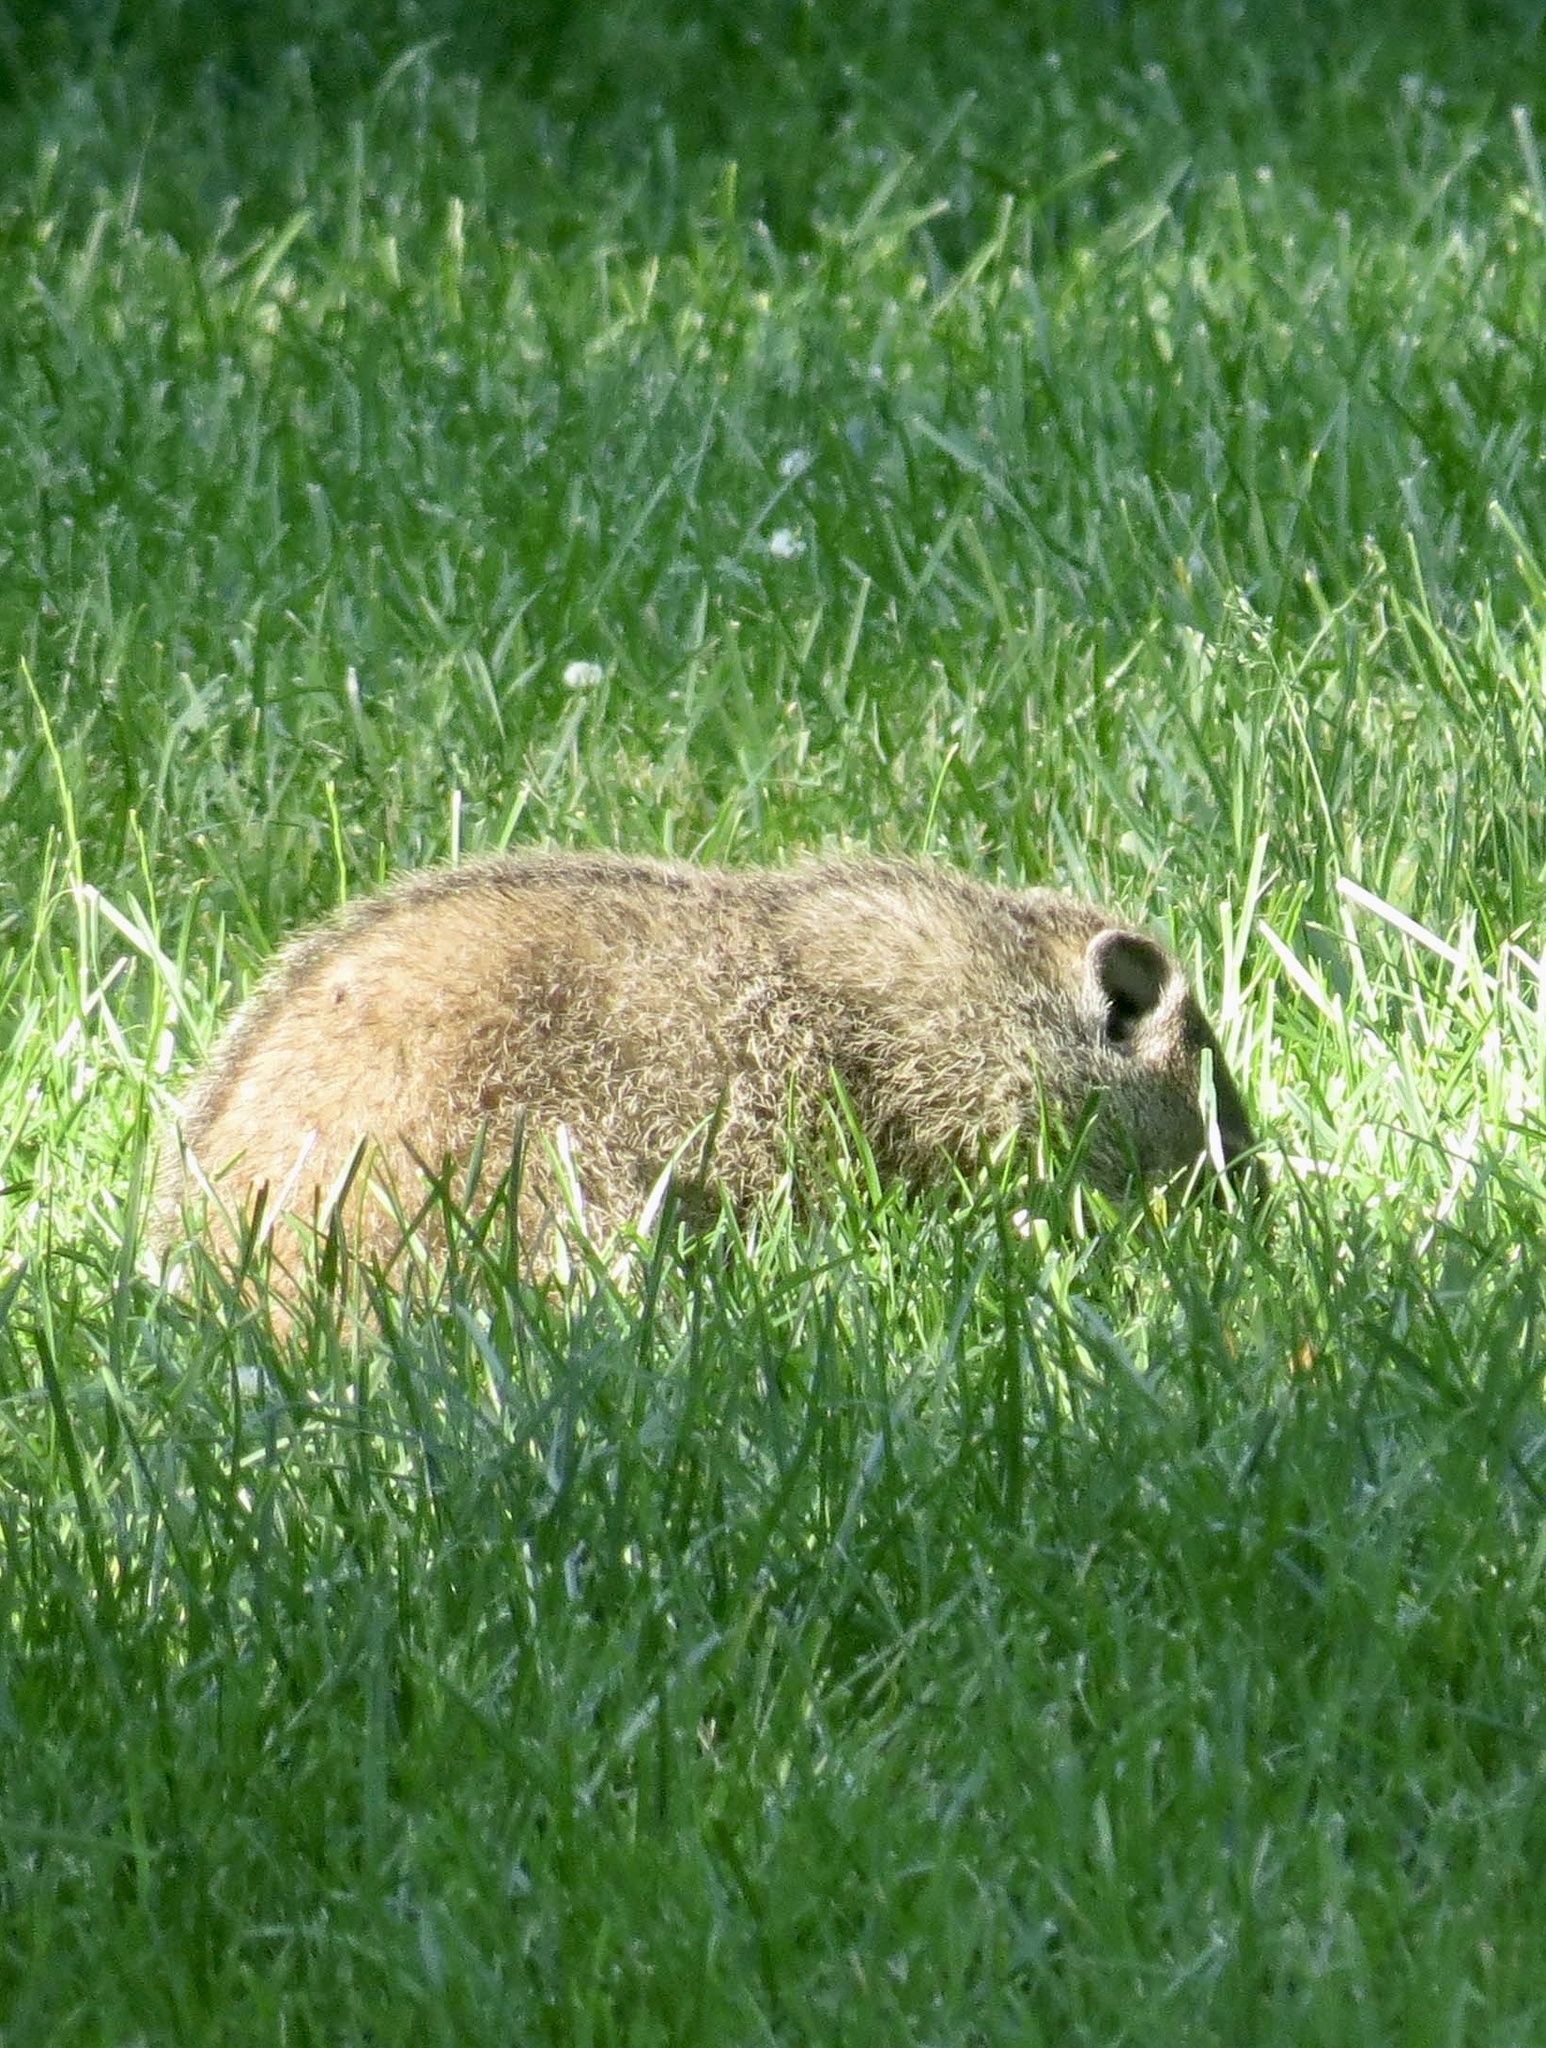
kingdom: Animalia
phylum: Chordata
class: Mammalia
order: Rodentia
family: Sciuridae
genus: Marmota
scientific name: Marmota monax
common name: Groundhog
